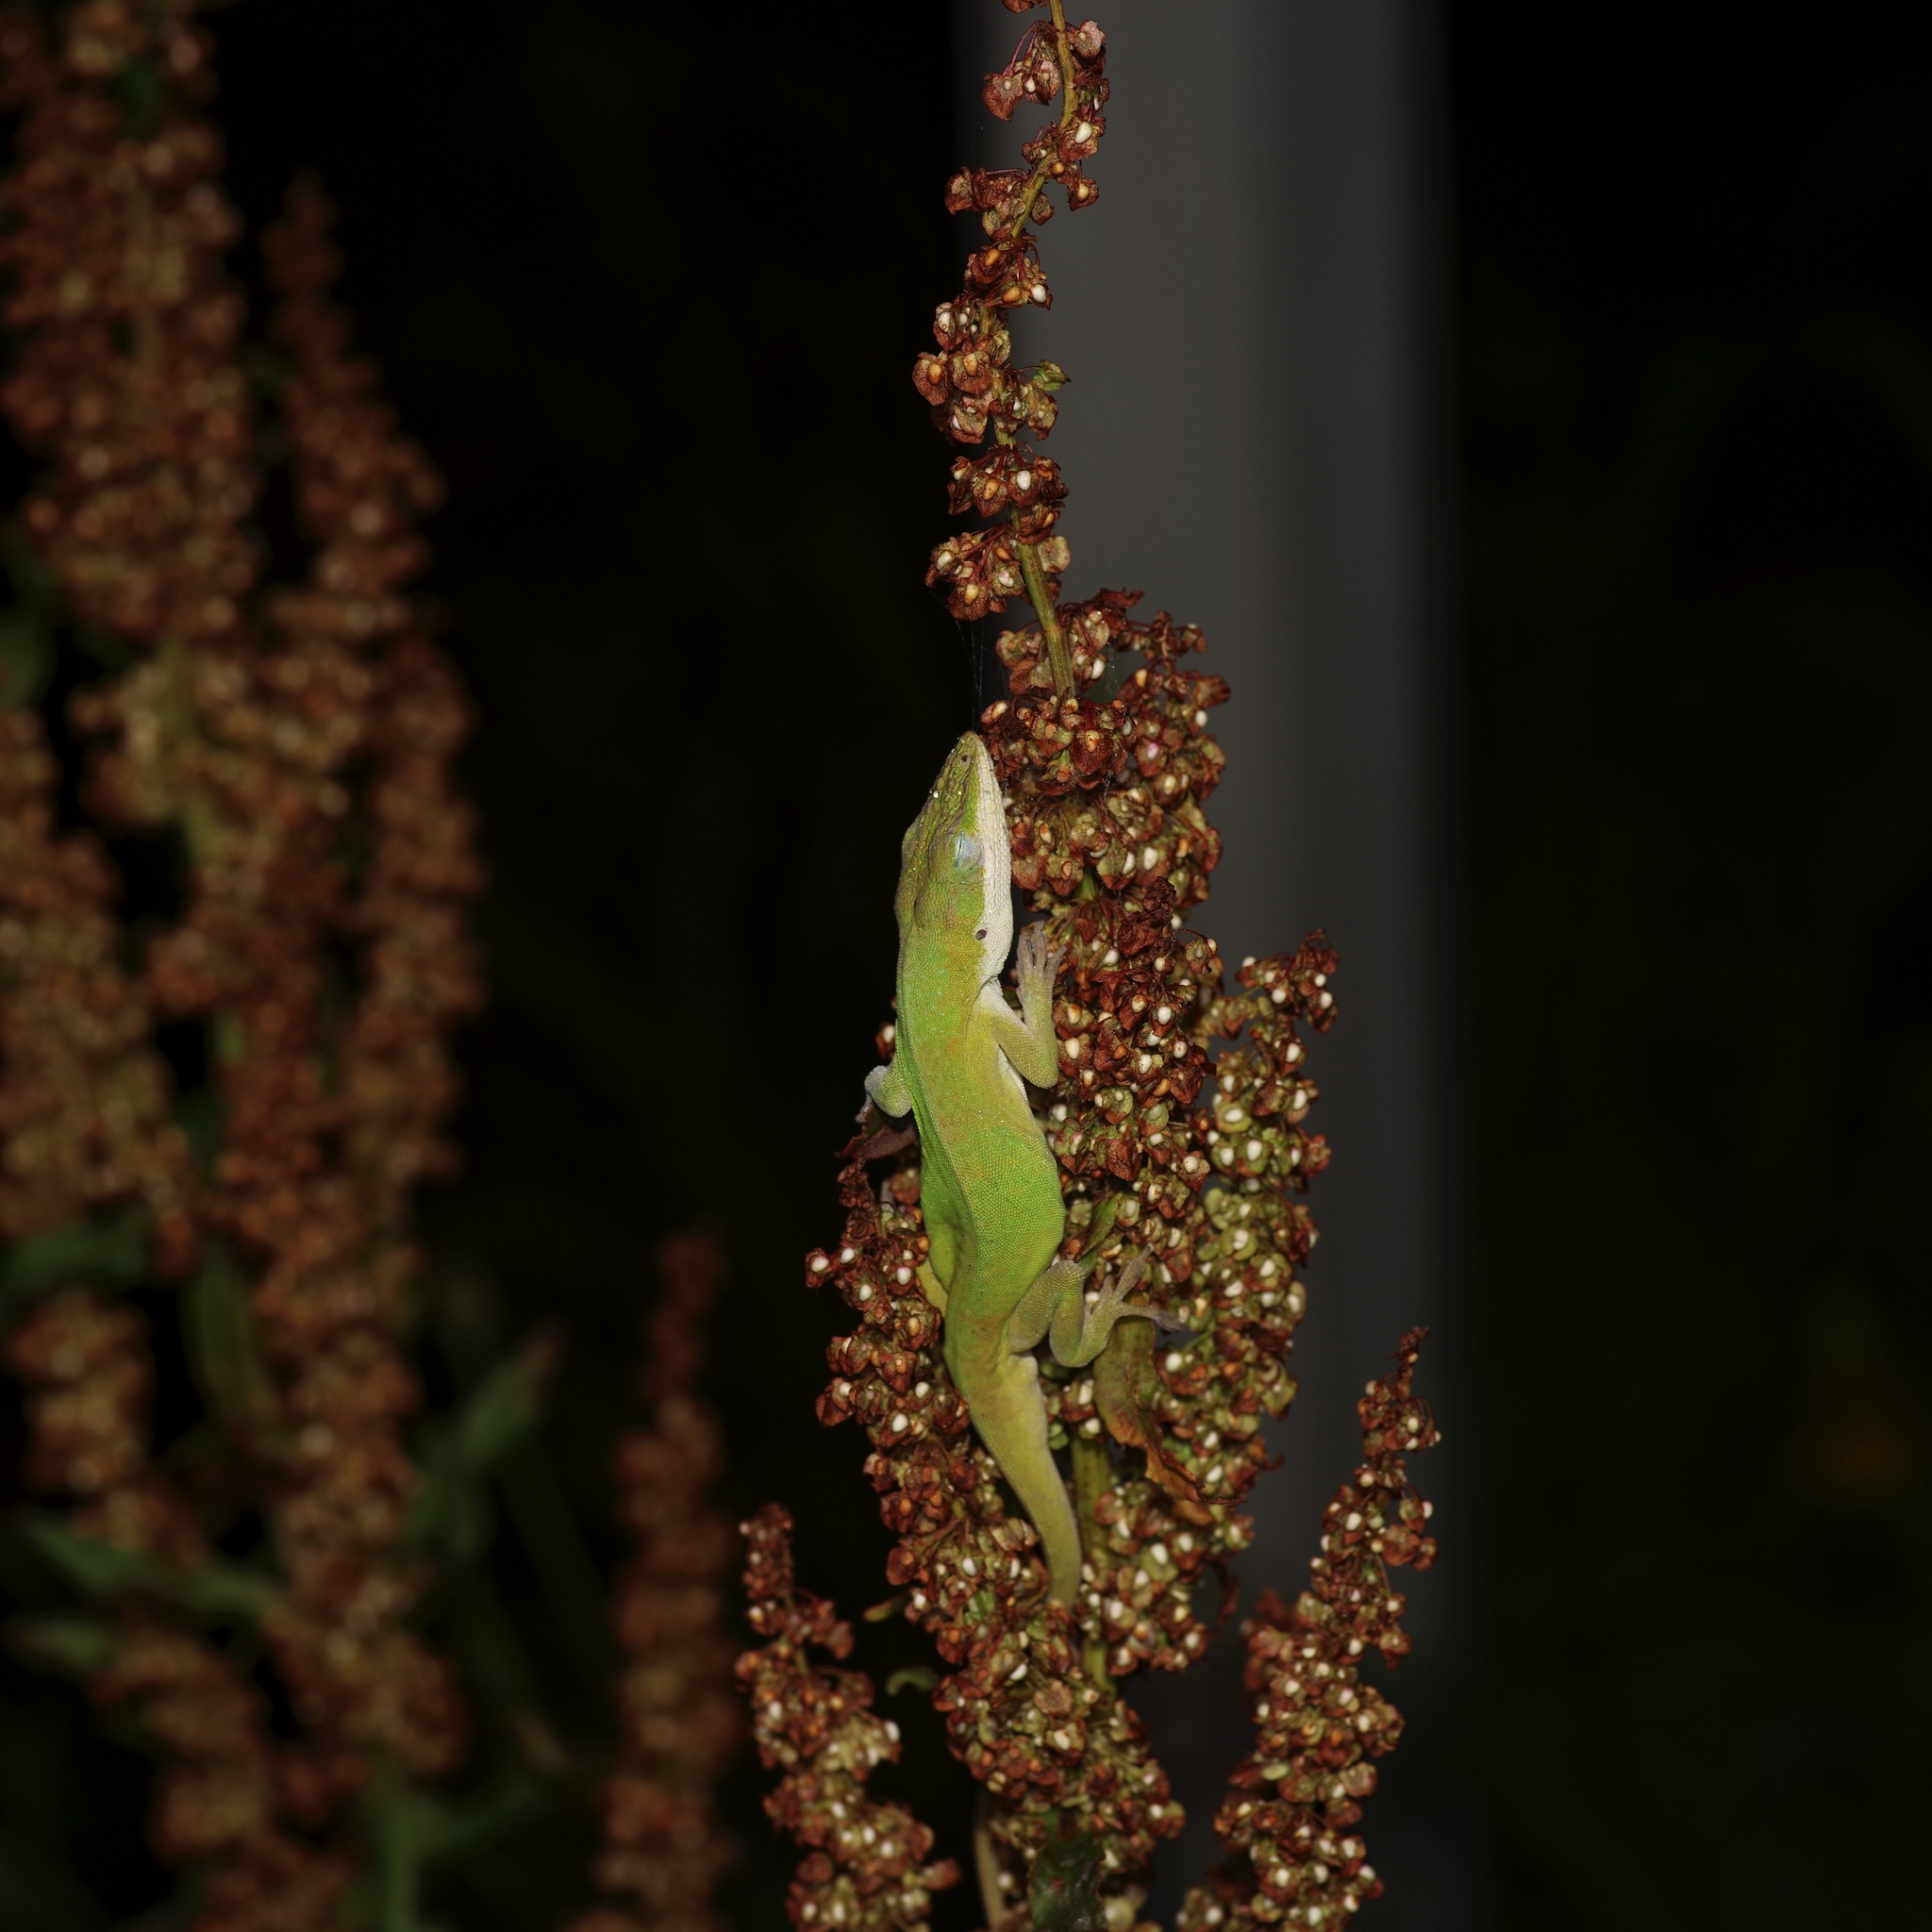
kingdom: Animalia
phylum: Chordata
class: Squamata
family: Dactyloidae
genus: Anolis
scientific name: Anolis carolinensis
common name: Green anole
